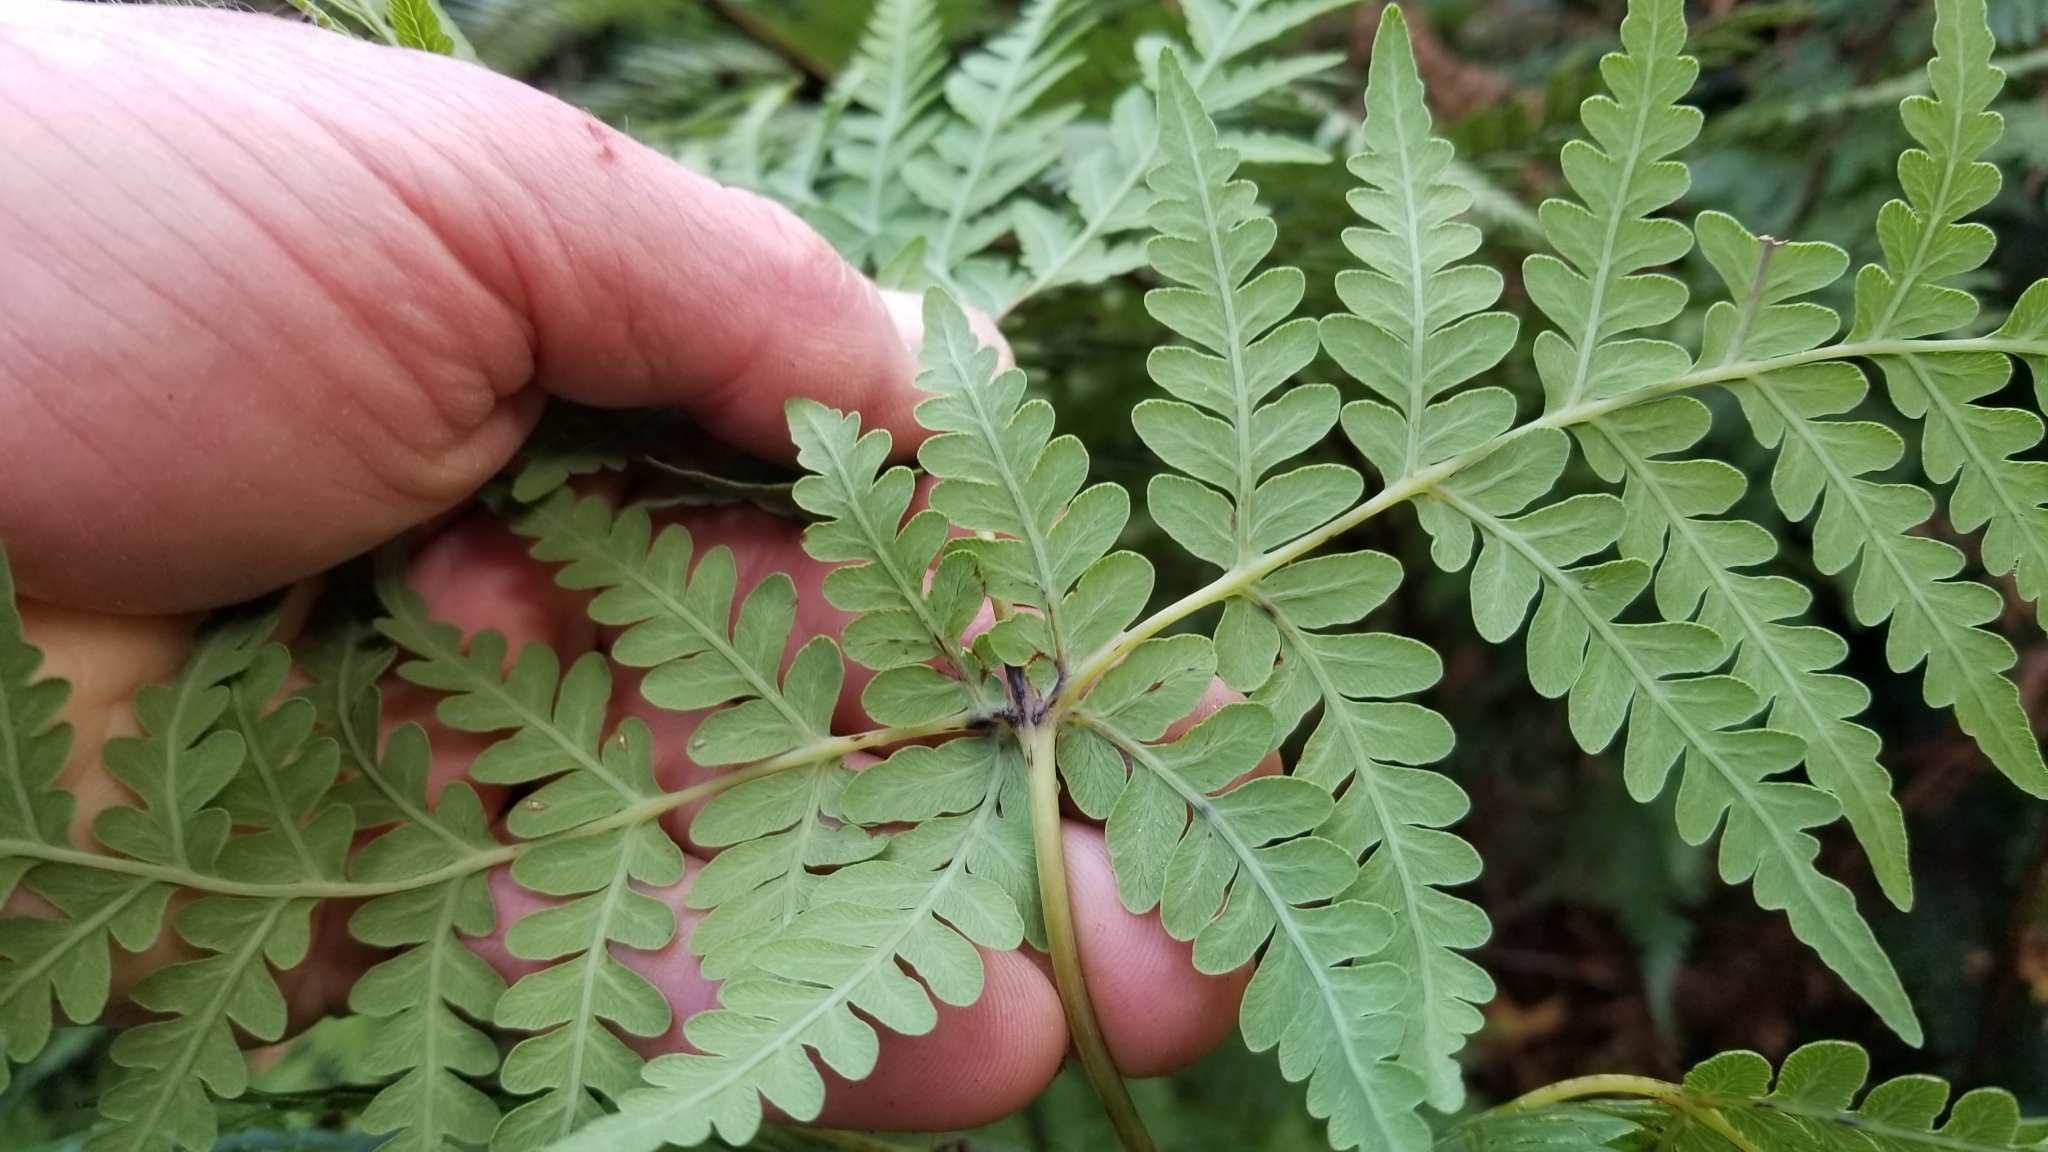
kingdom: Plantae
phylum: Tracheophyta
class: Polypodiopsida
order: Polypodiales
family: Dennstaedtiaceae
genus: Histiopteris
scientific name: Histiopteris incisa
